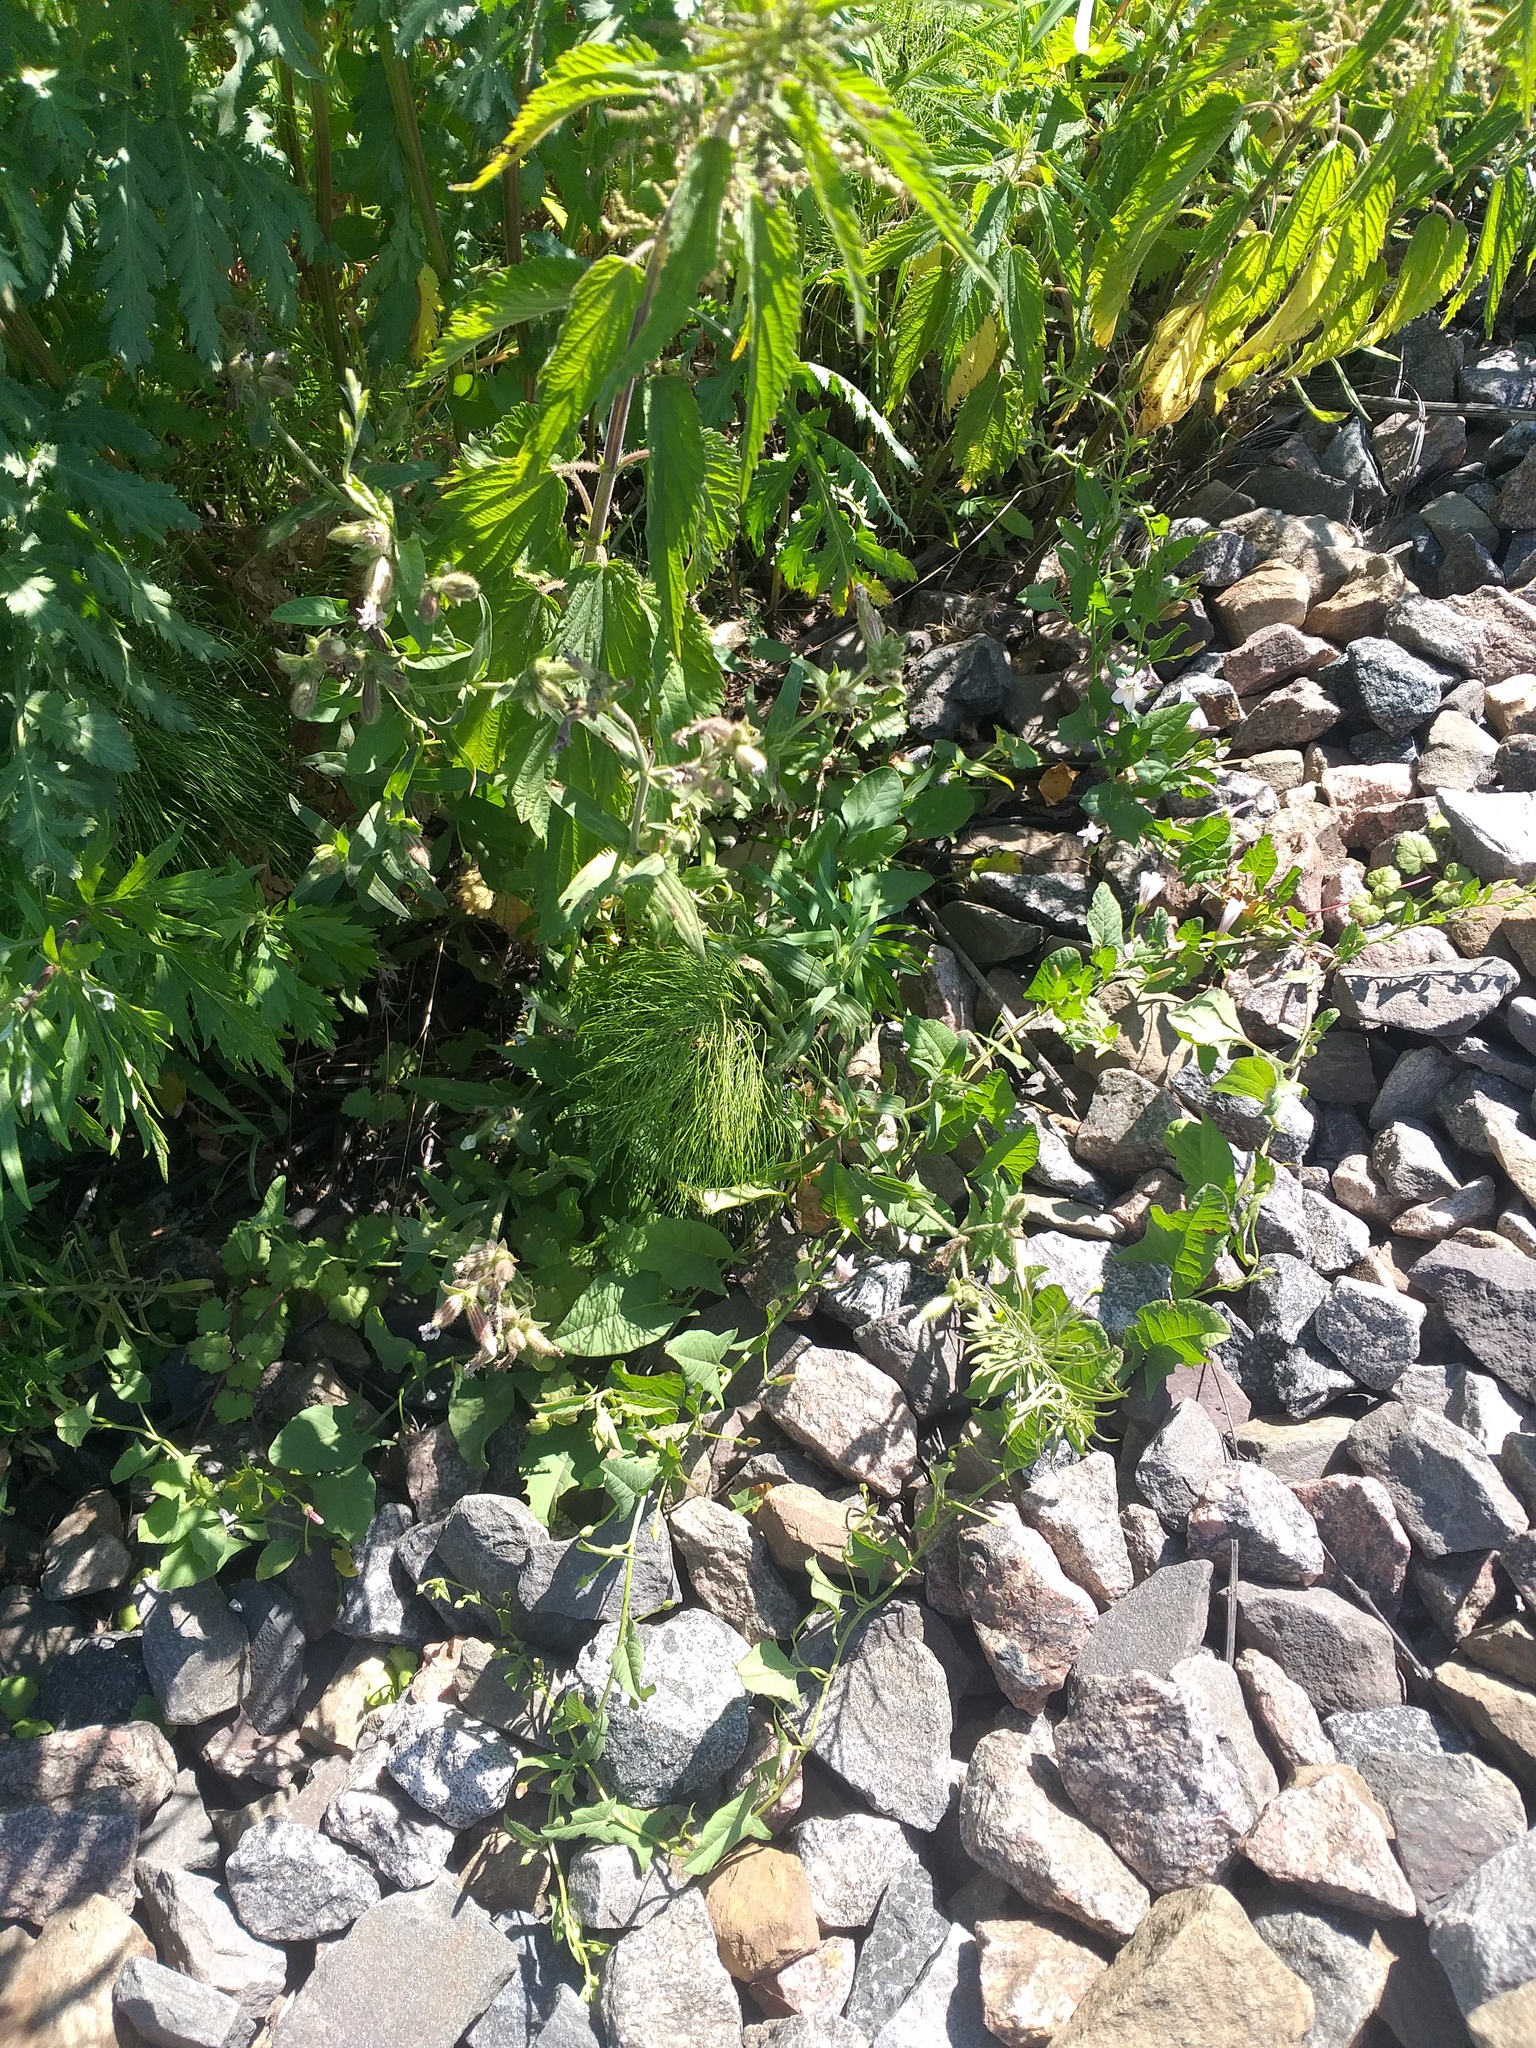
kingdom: Plantae
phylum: Tracheophyta
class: Polypodiopsida
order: Equisetales
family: Equisetaceae
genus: Equisetum
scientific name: Equisetum sylvaticum
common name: Wood horsetail
